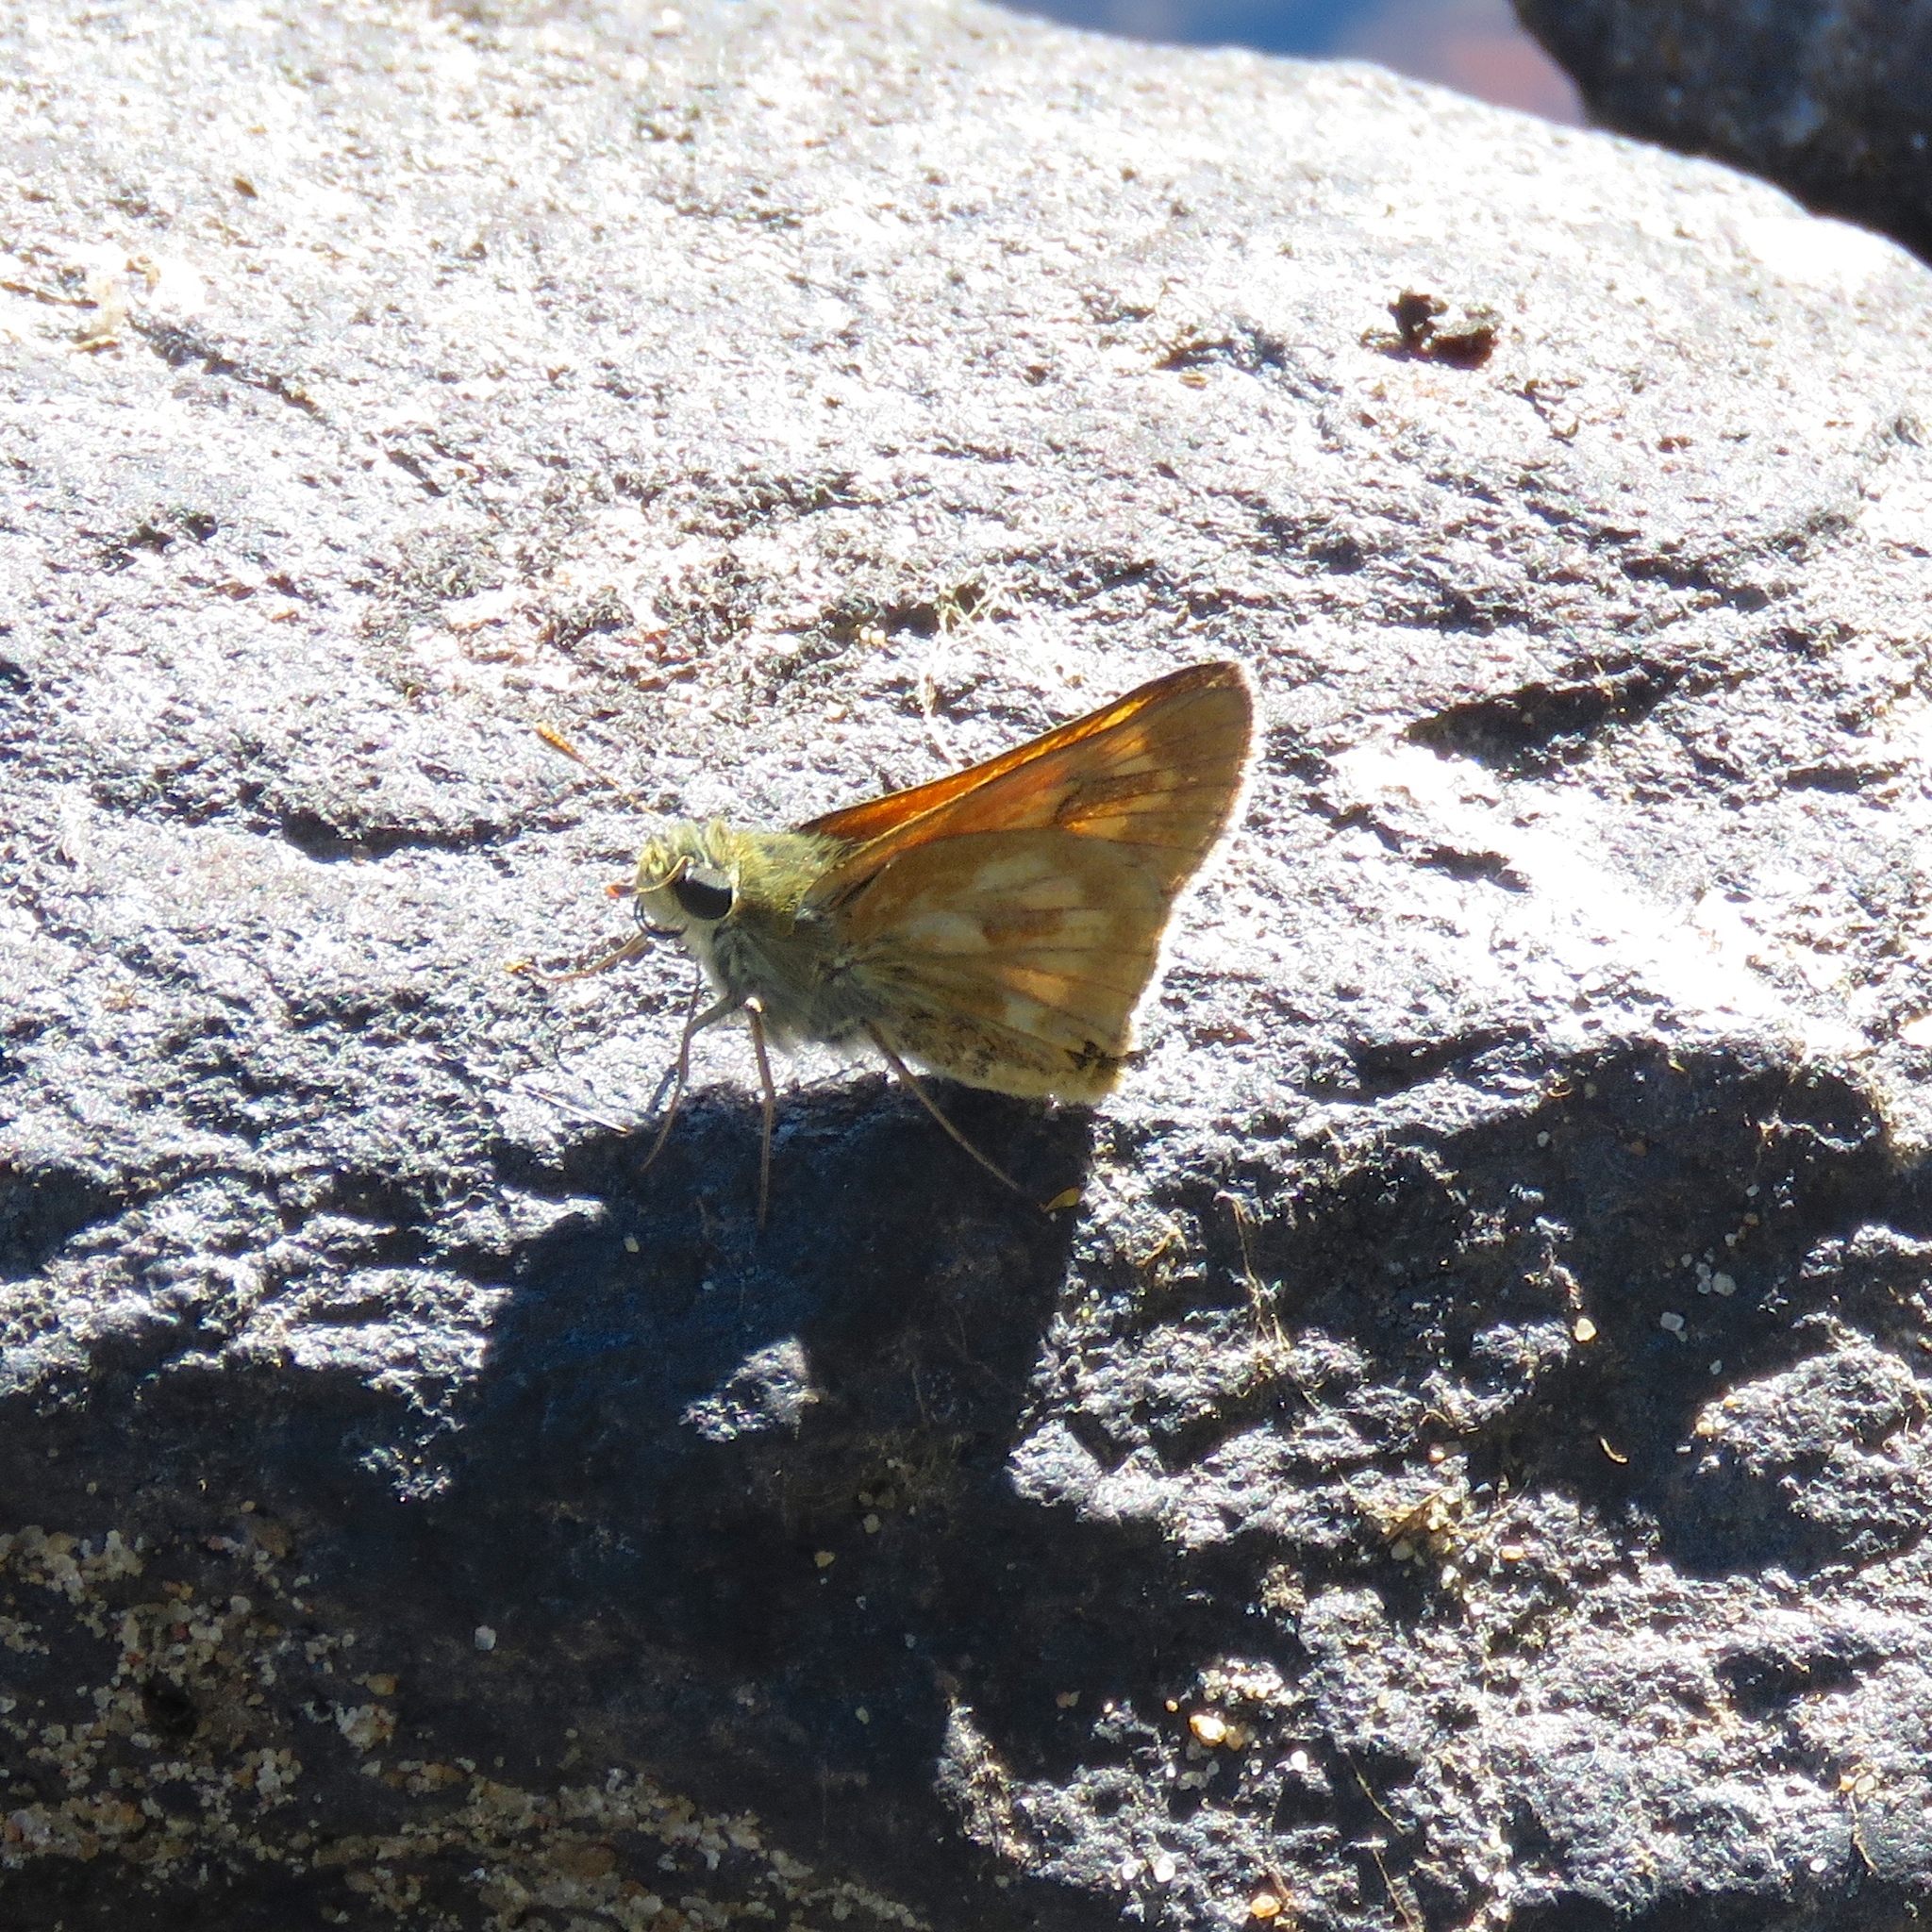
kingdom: Animalia
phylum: Arthropoda
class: Insecta
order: Lepidoptera
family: Hesperiidae
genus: Polites
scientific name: Polites mystic
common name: Long dash
